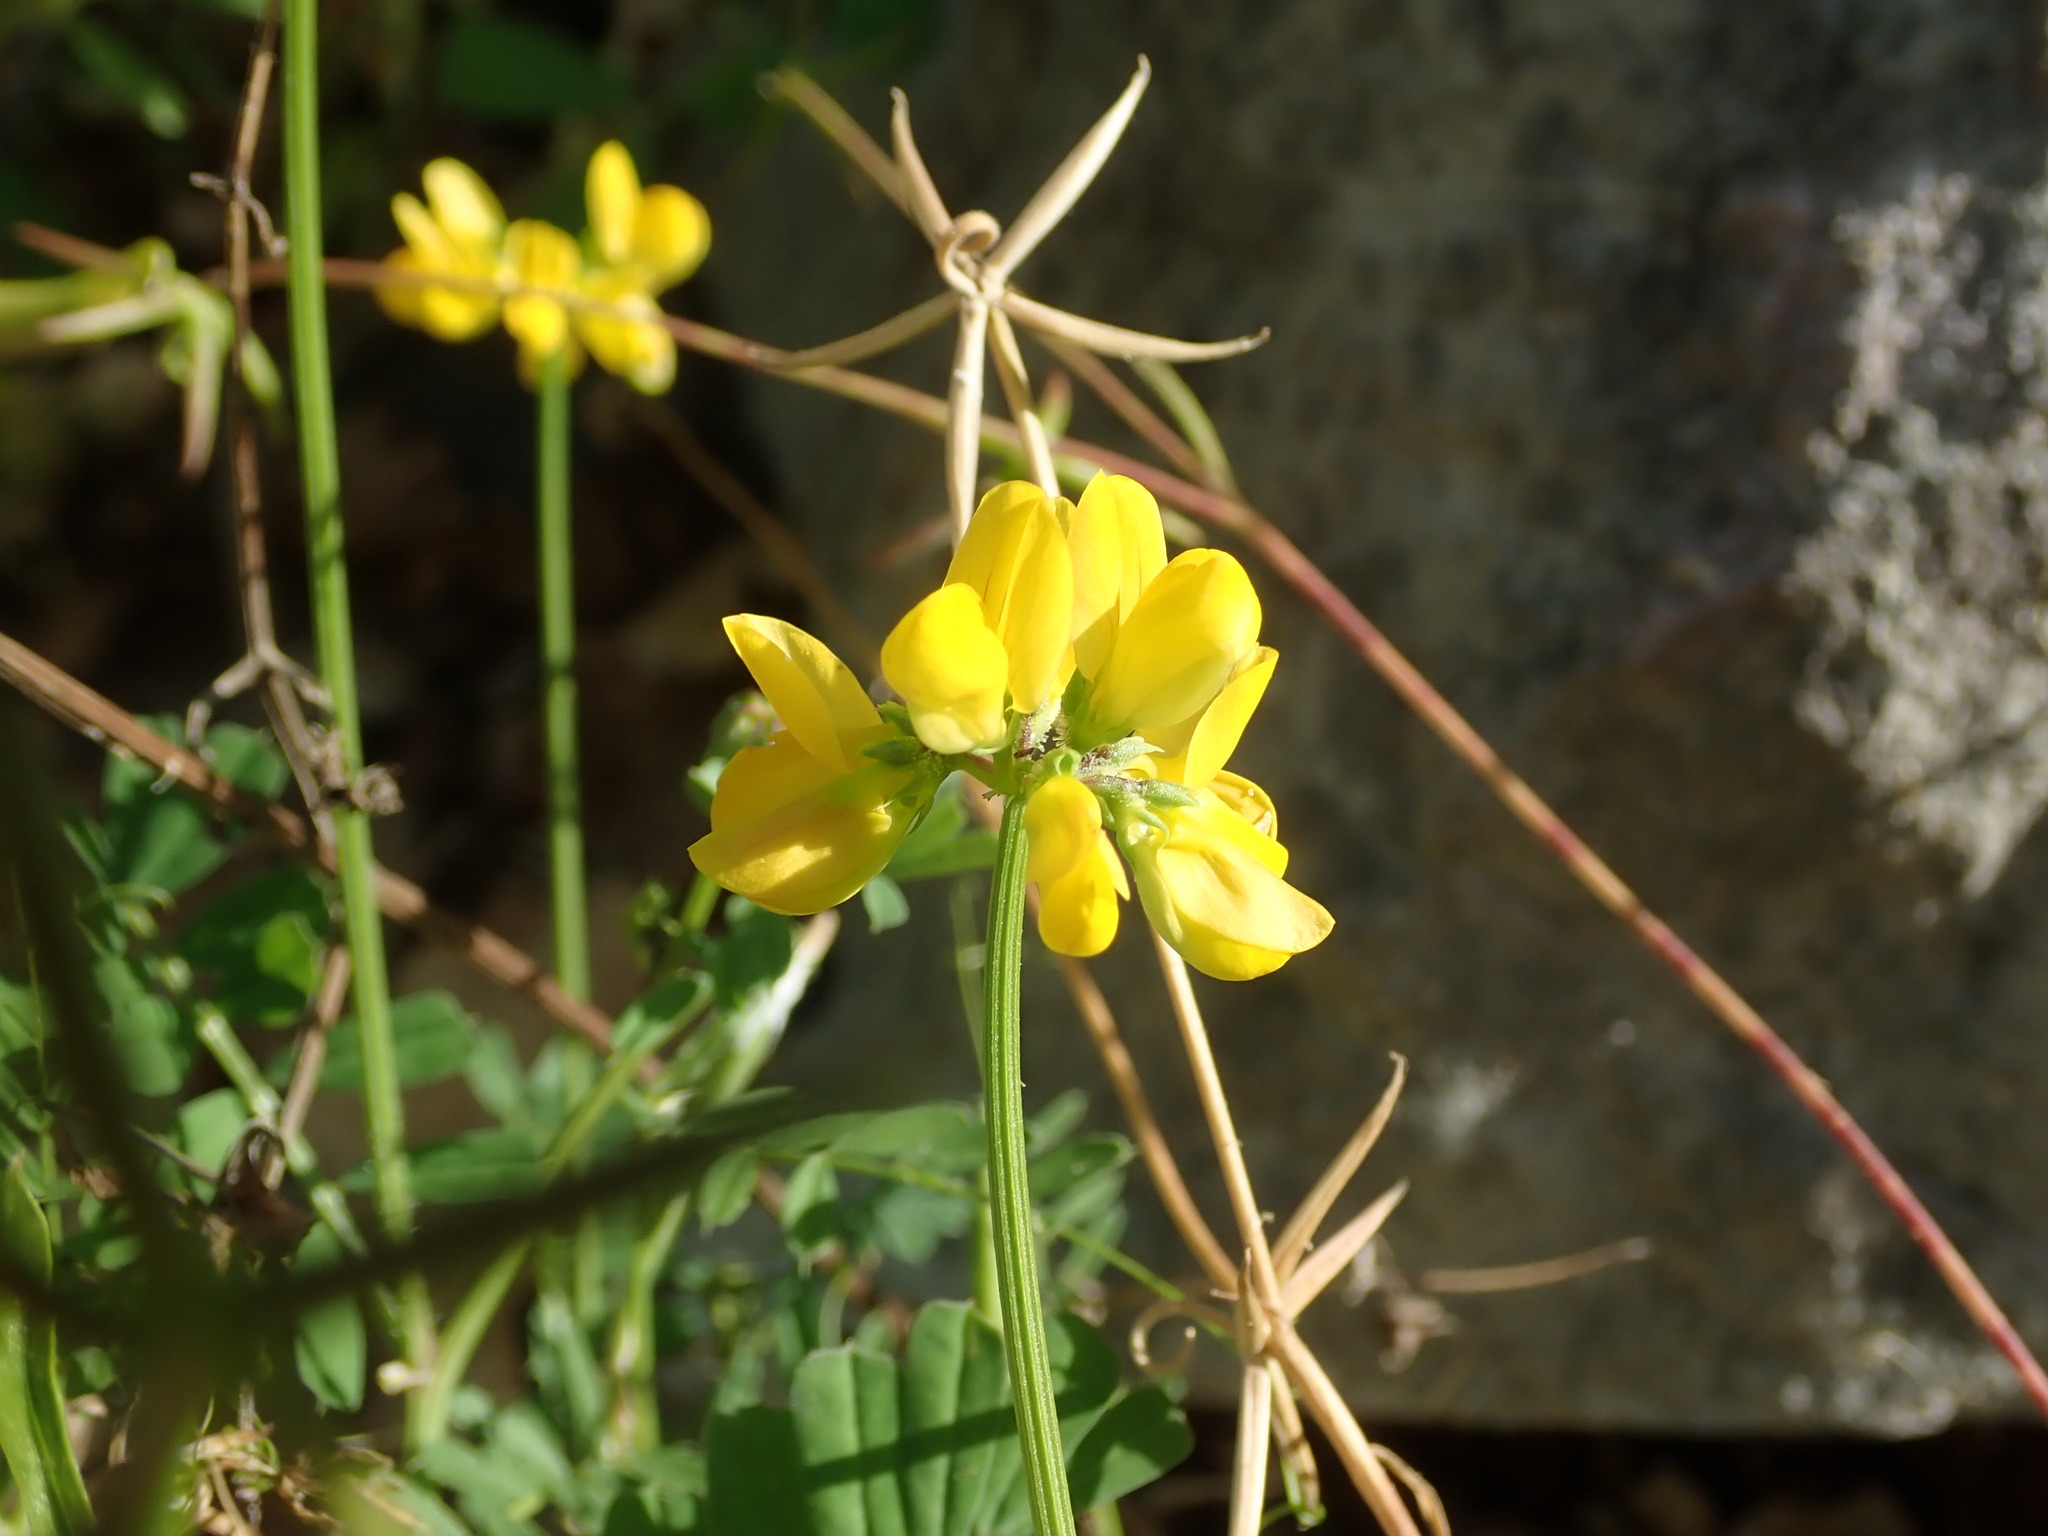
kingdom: Plantae
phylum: Tracheophyta
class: Magnoliopsida
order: Fabales
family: Fabaceae
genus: Coronilla
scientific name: Coronilla securidaca
